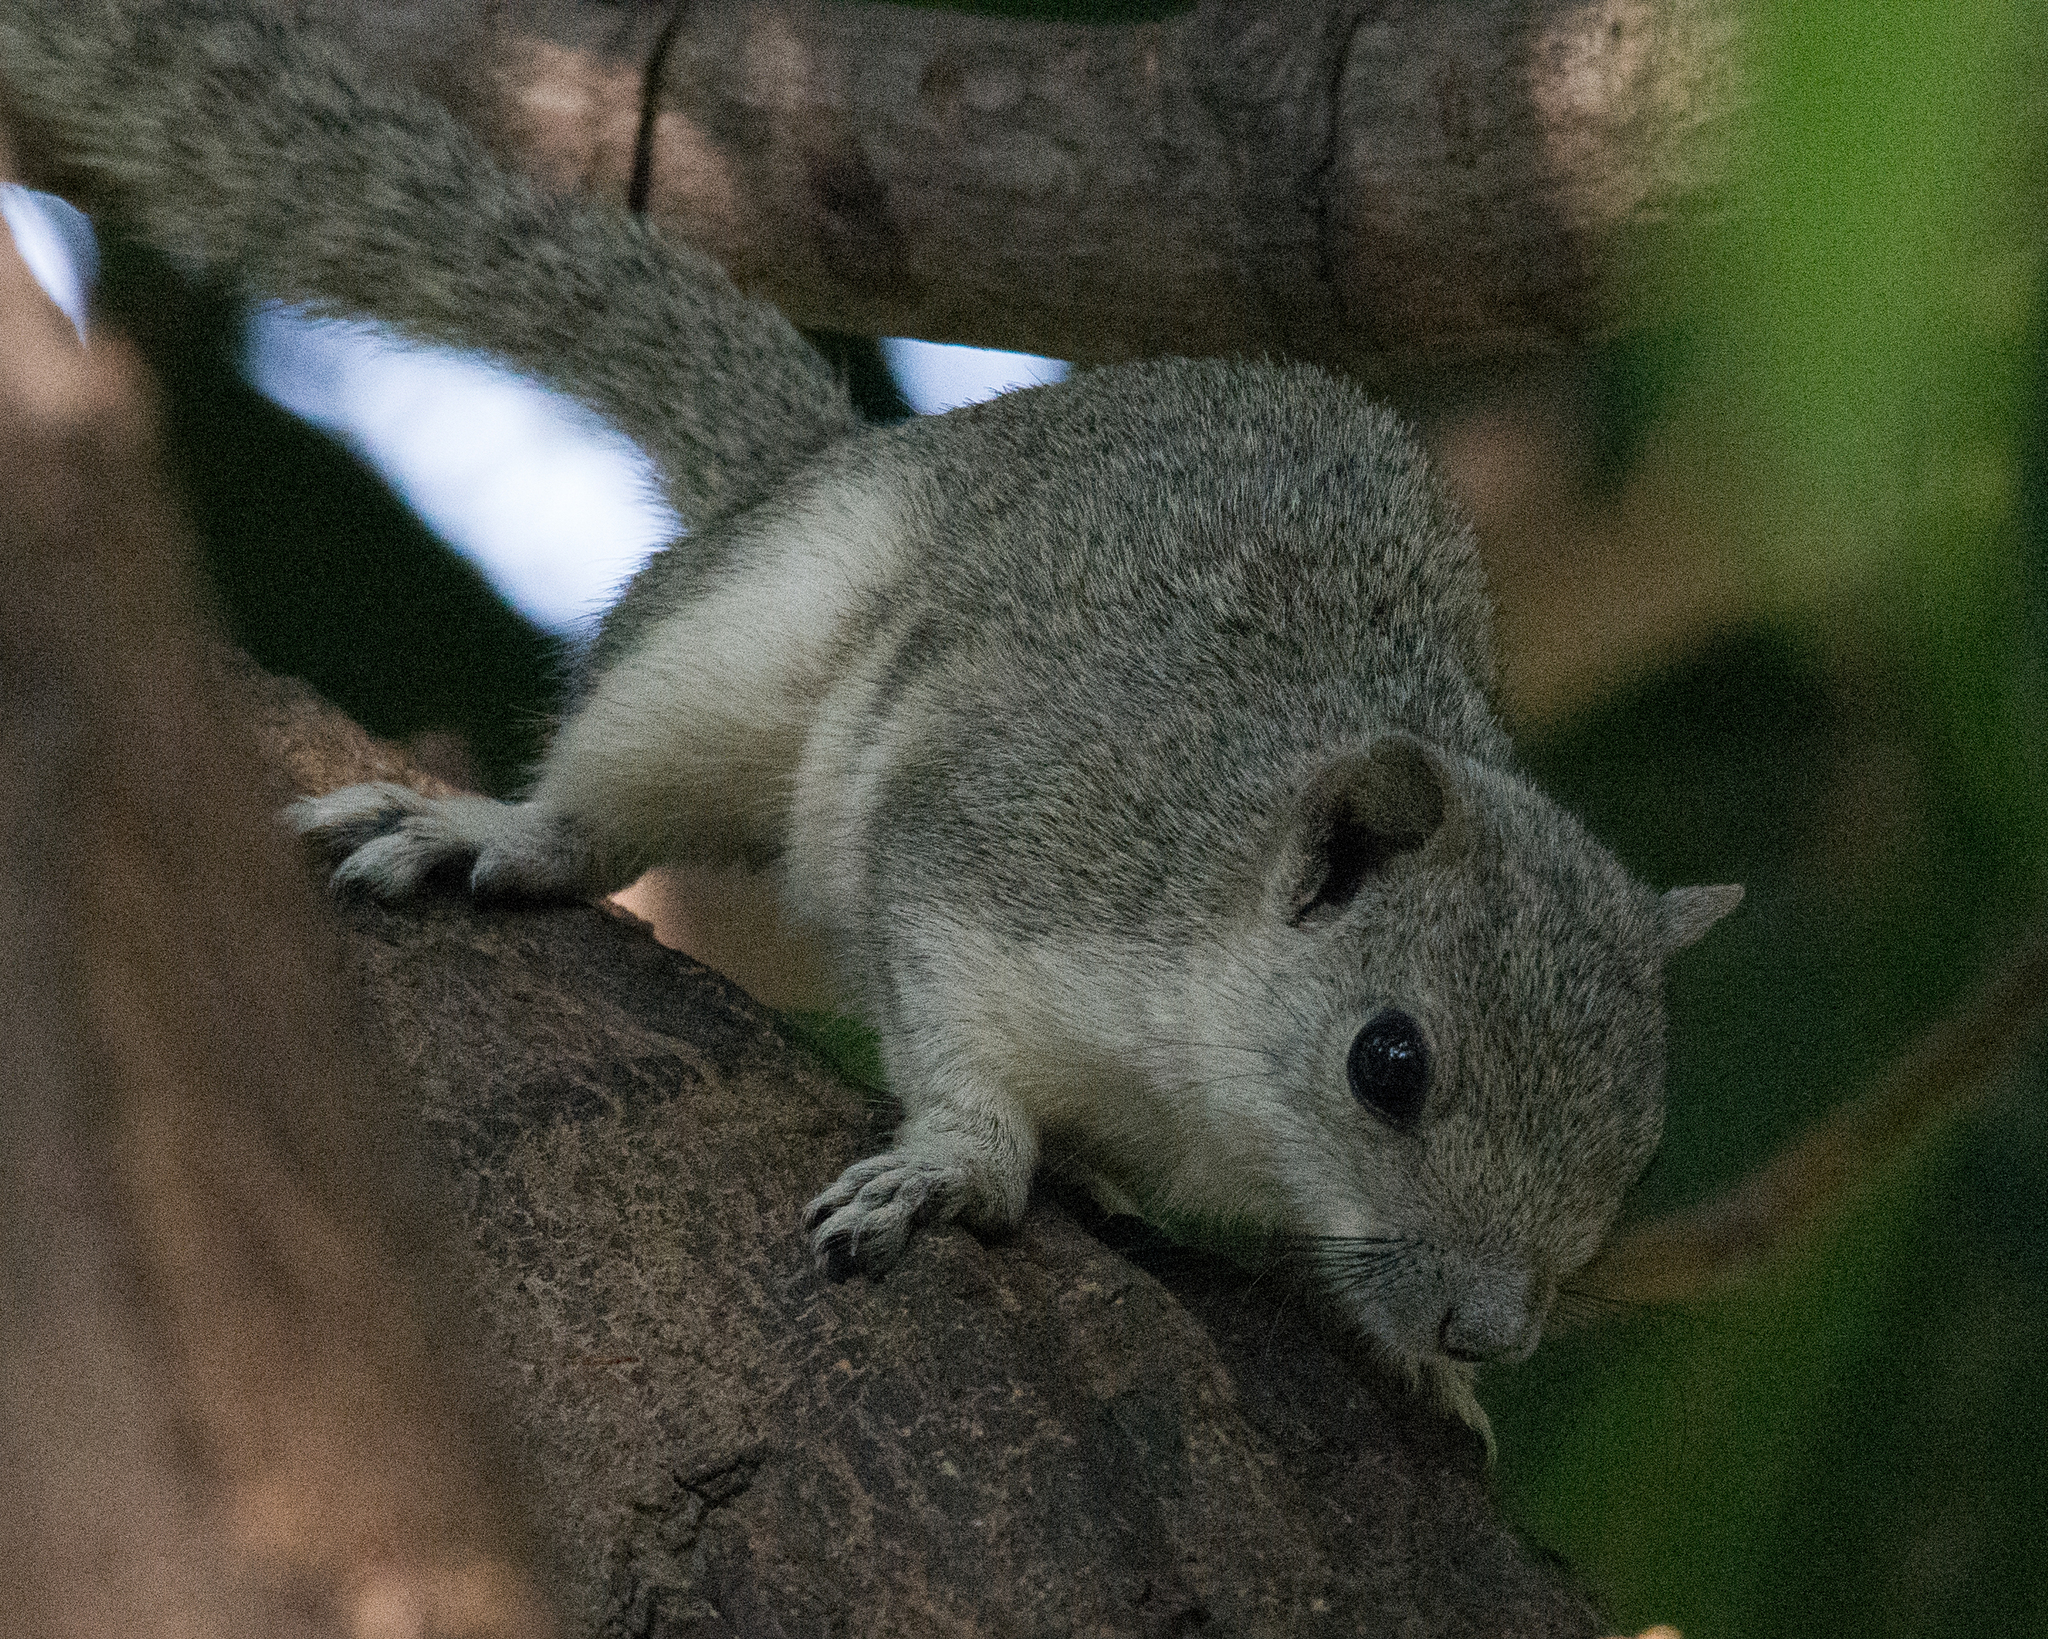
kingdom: Animalia
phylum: Chordata
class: Mammalia
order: Rodentia
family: Sciuridae
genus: Callosciurus
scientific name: Callosciurus pygerythrus
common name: Irrawaddy squirrel
